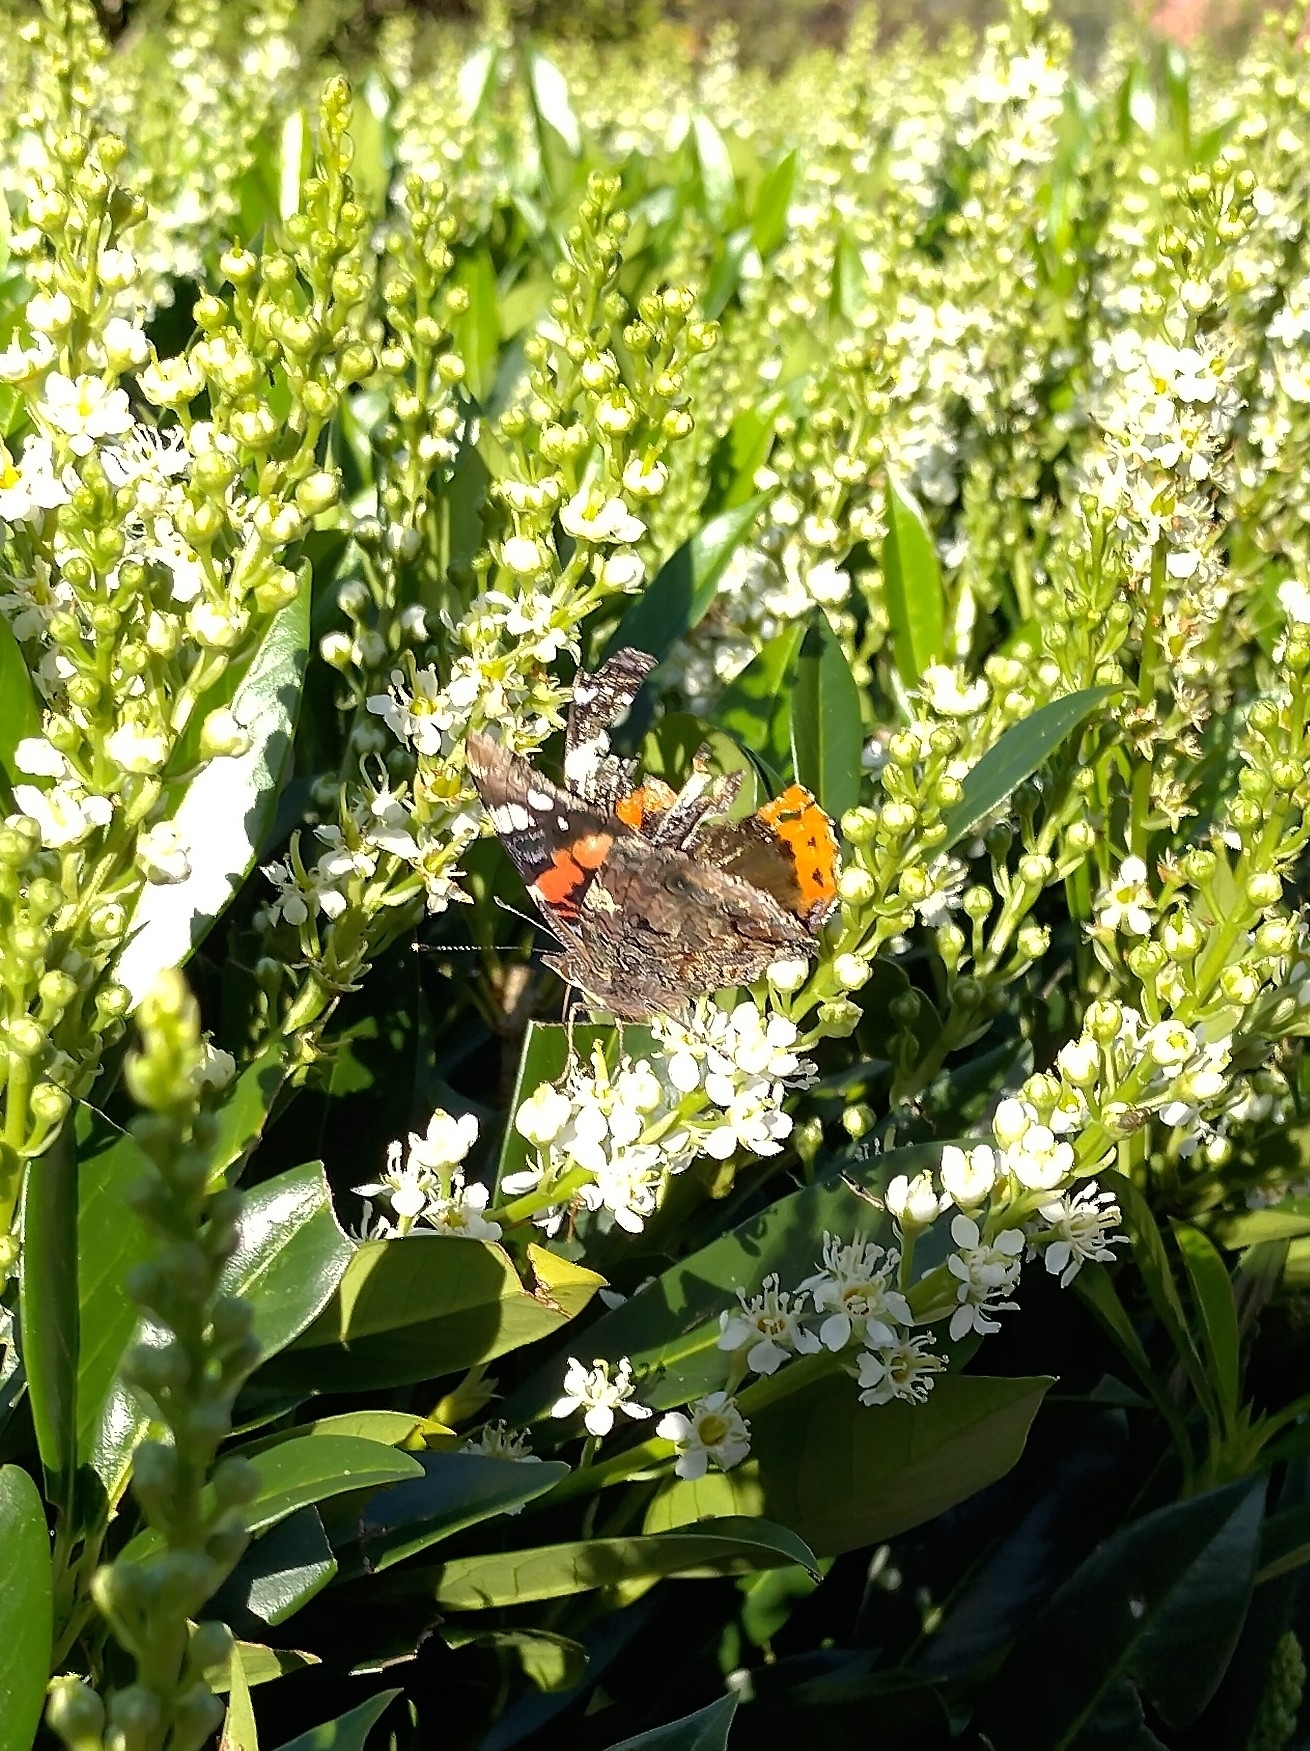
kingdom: Animalia
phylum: Arthropoda
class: Insecta
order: Lepidoptera
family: Nymphalidae
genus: Vanessa
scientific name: Vanessa atalanta
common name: Red admiral
